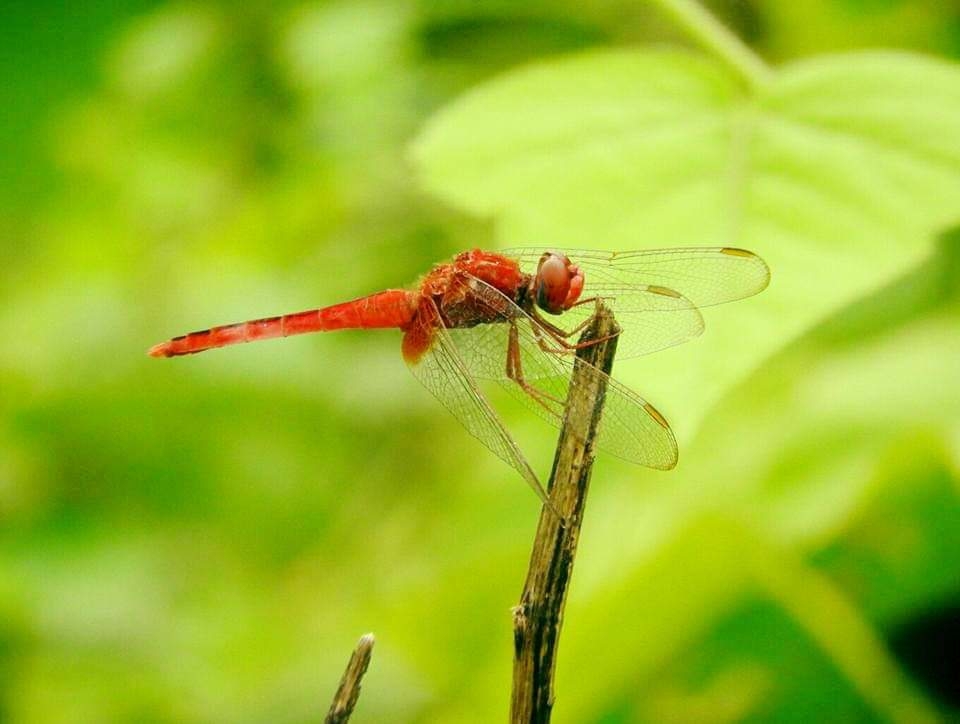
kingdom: Animalia
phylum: Arthropoda
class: Insecta
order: Odonata
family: Libellulidae
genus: Crocothemis
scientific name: Crocothemis servilia
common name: Scarlet skimmer
